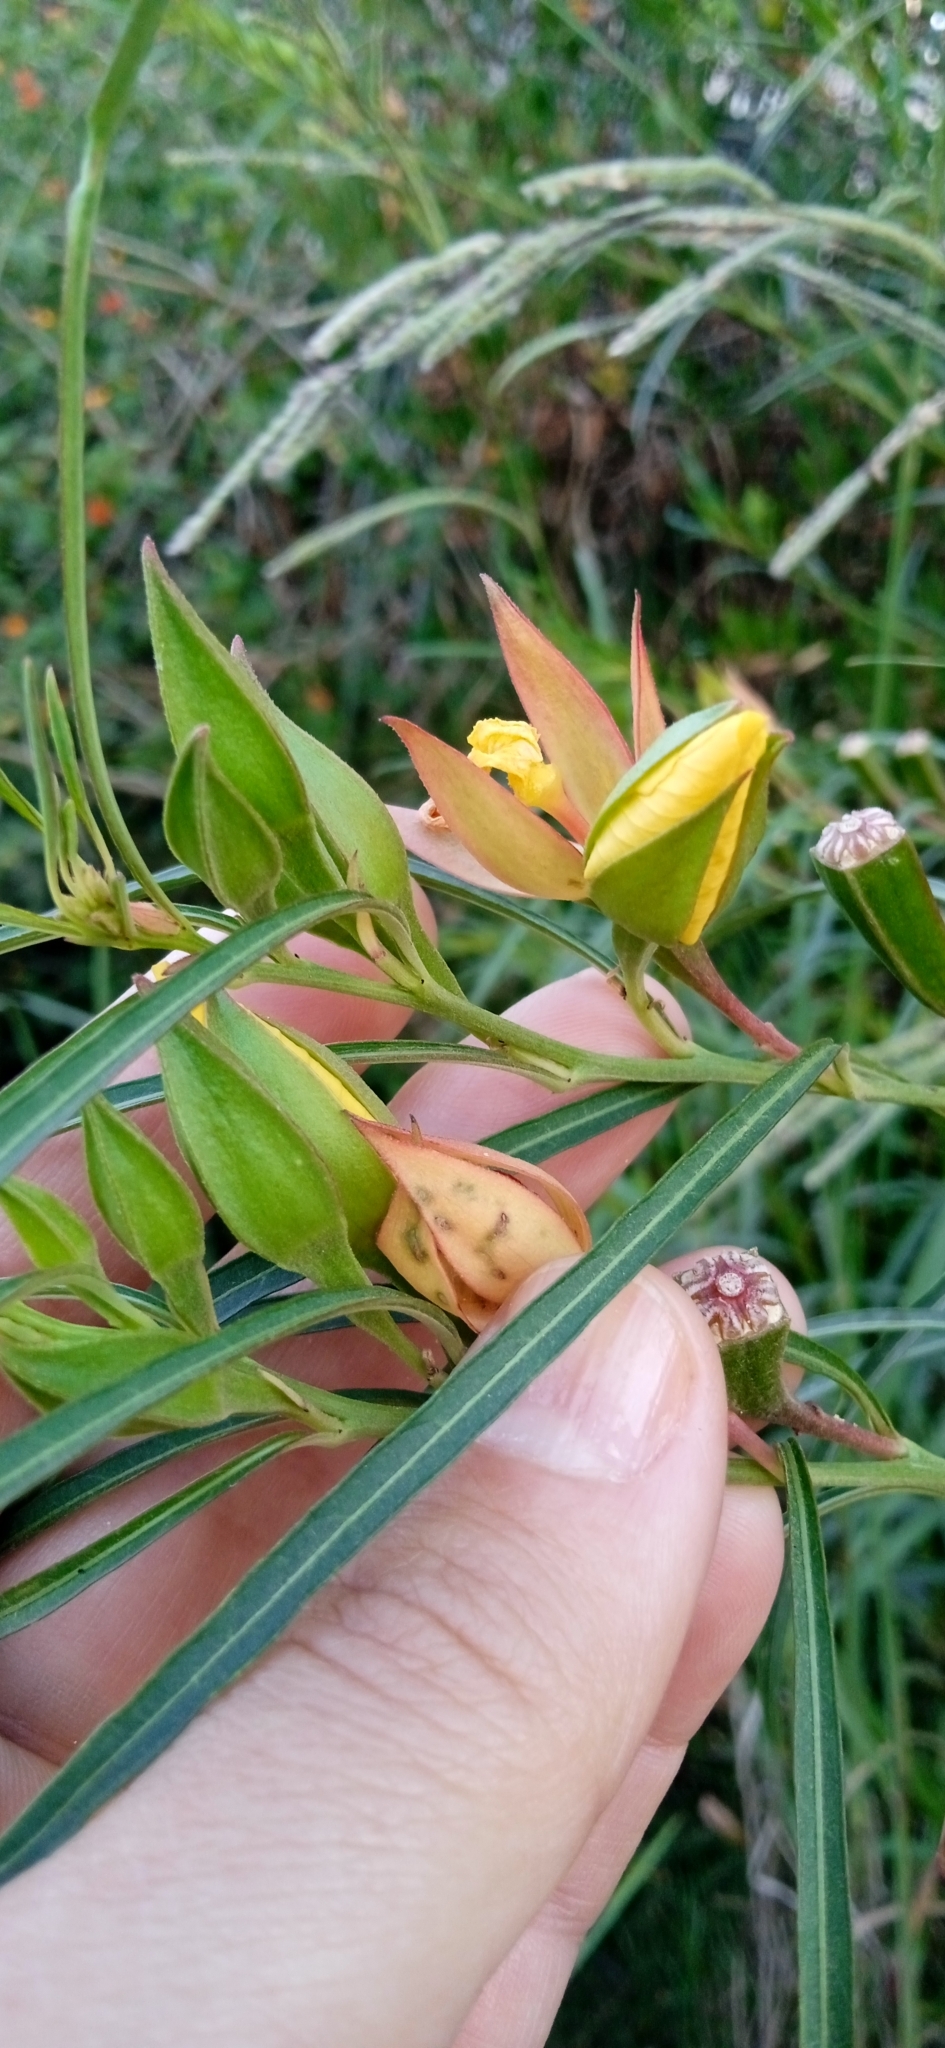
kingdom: Plantae
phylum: Tracheophyta
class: Magnoliopsida
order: Myrtales
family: Onagraceae
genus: Ludwigia
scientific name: Ludwigia longifolia
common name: Longleaf primrose-willow
